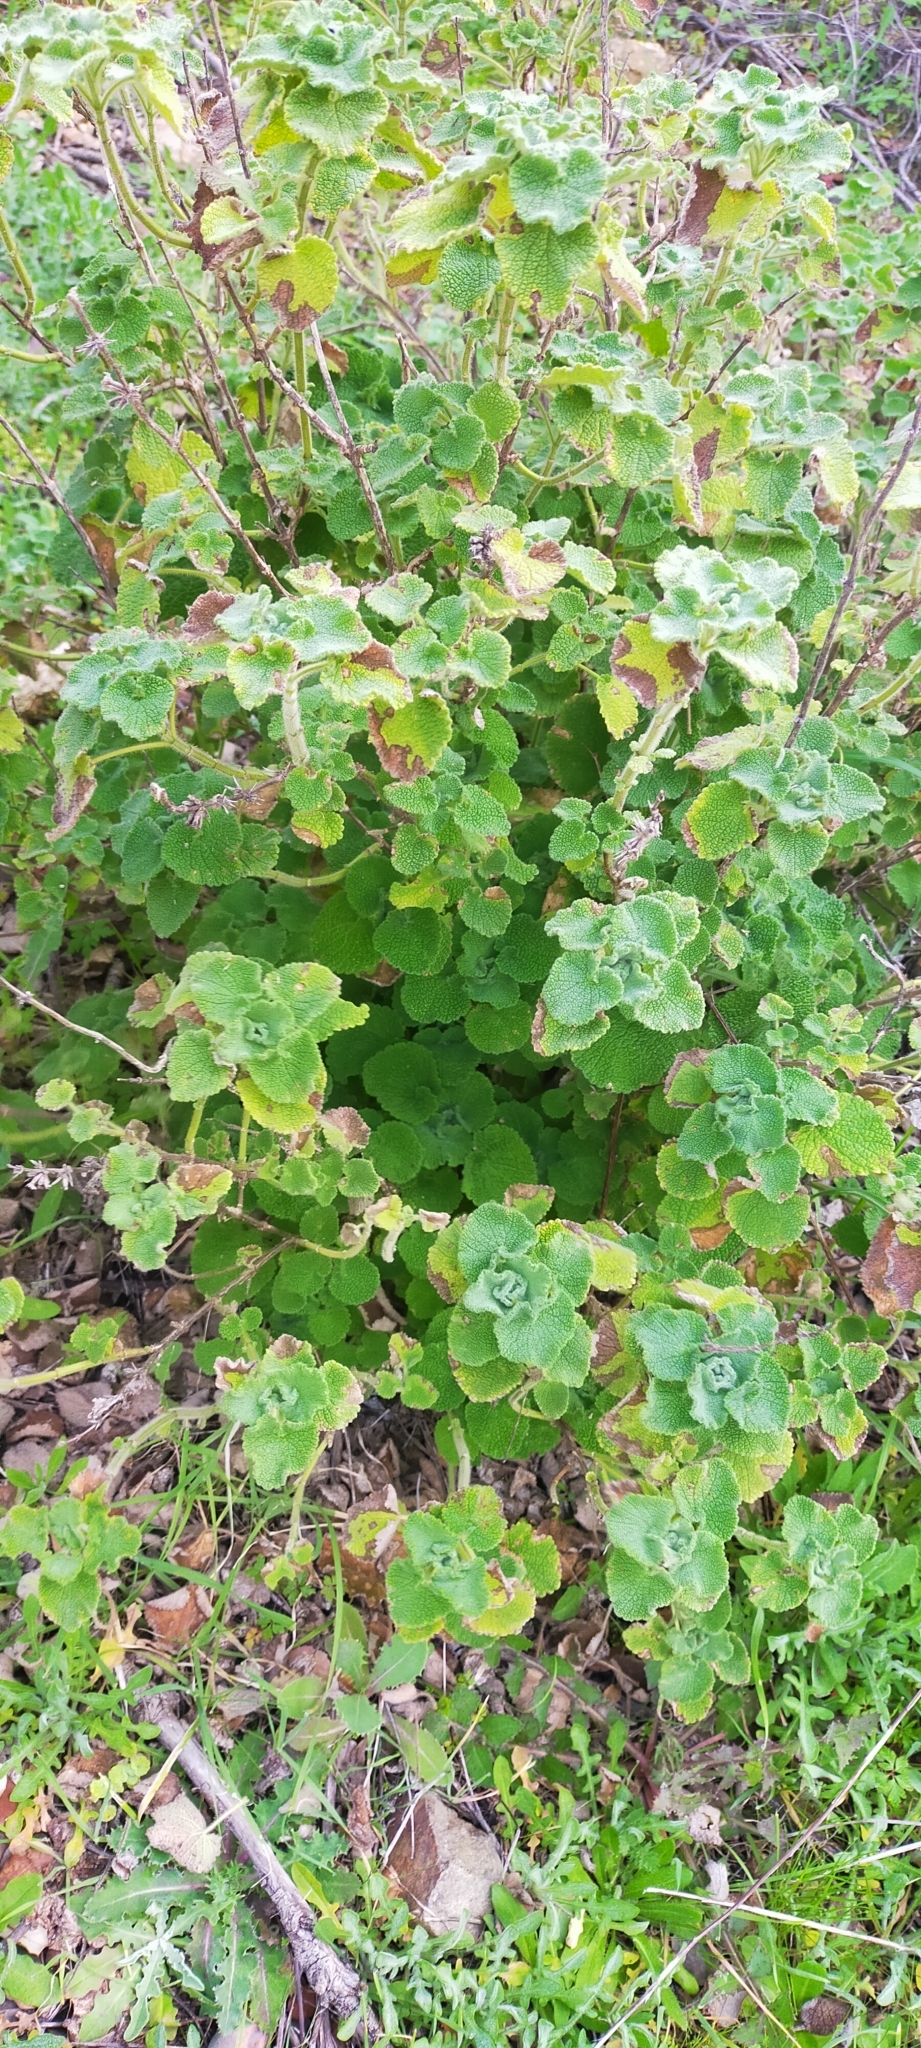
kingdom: Plantae
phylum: Tracheophyta
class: Magnoliopsida
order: Lamiales
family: Lamiaceae
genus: Pseudodictamnus
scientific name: Pseudodictamnus hirsutus
